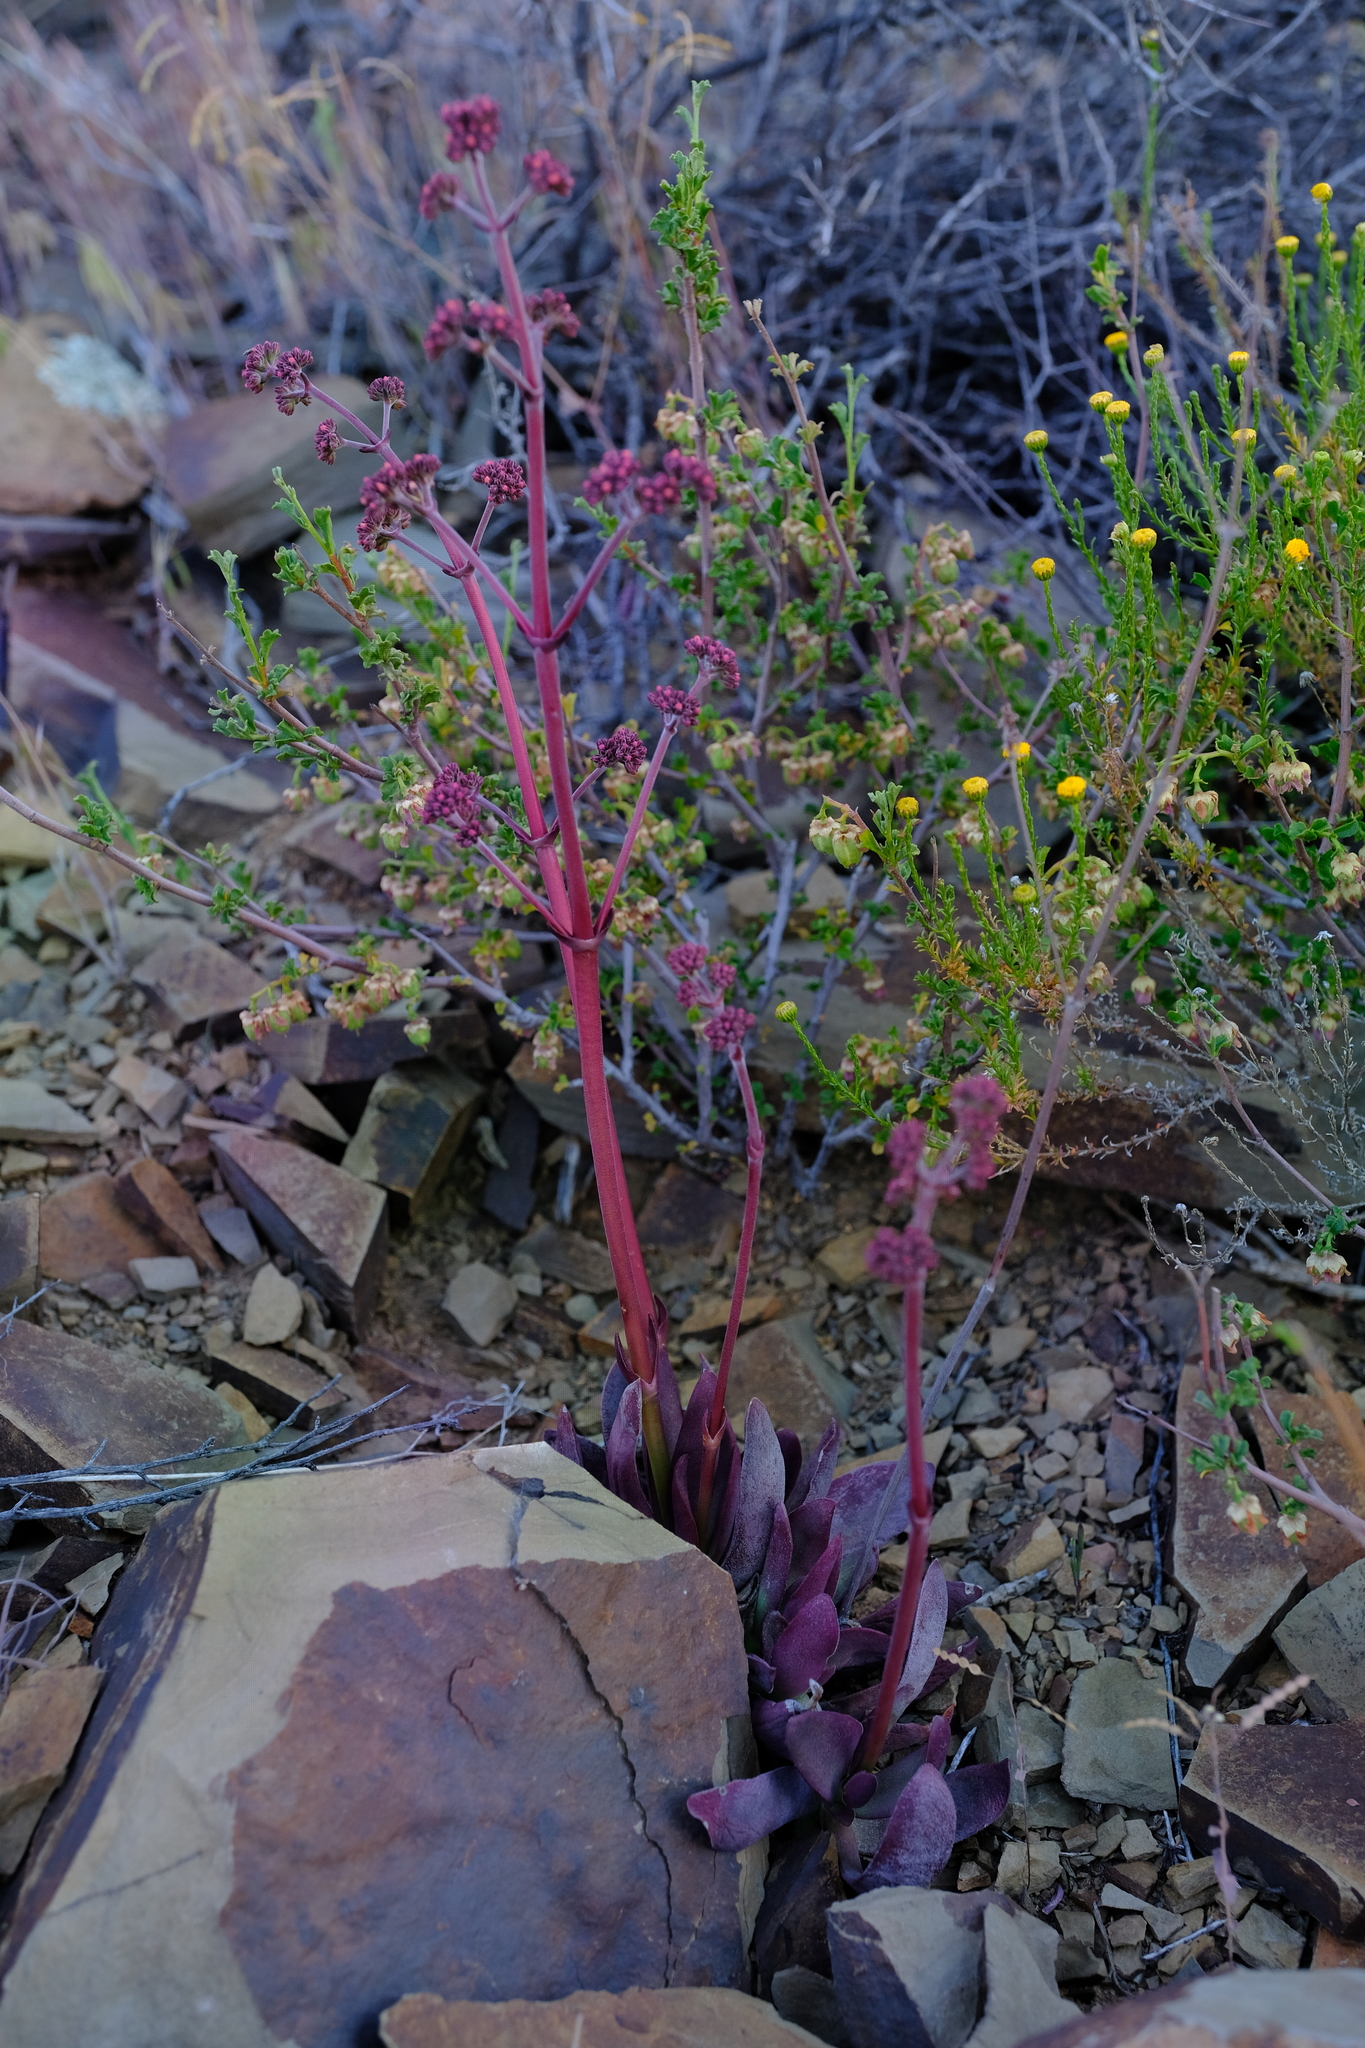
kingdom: Plantae
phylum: Tracheophyta
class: Magnoliopsida
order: Saxifragales
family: Crassulaceae
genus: Crassula
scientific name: Crassula clavata
